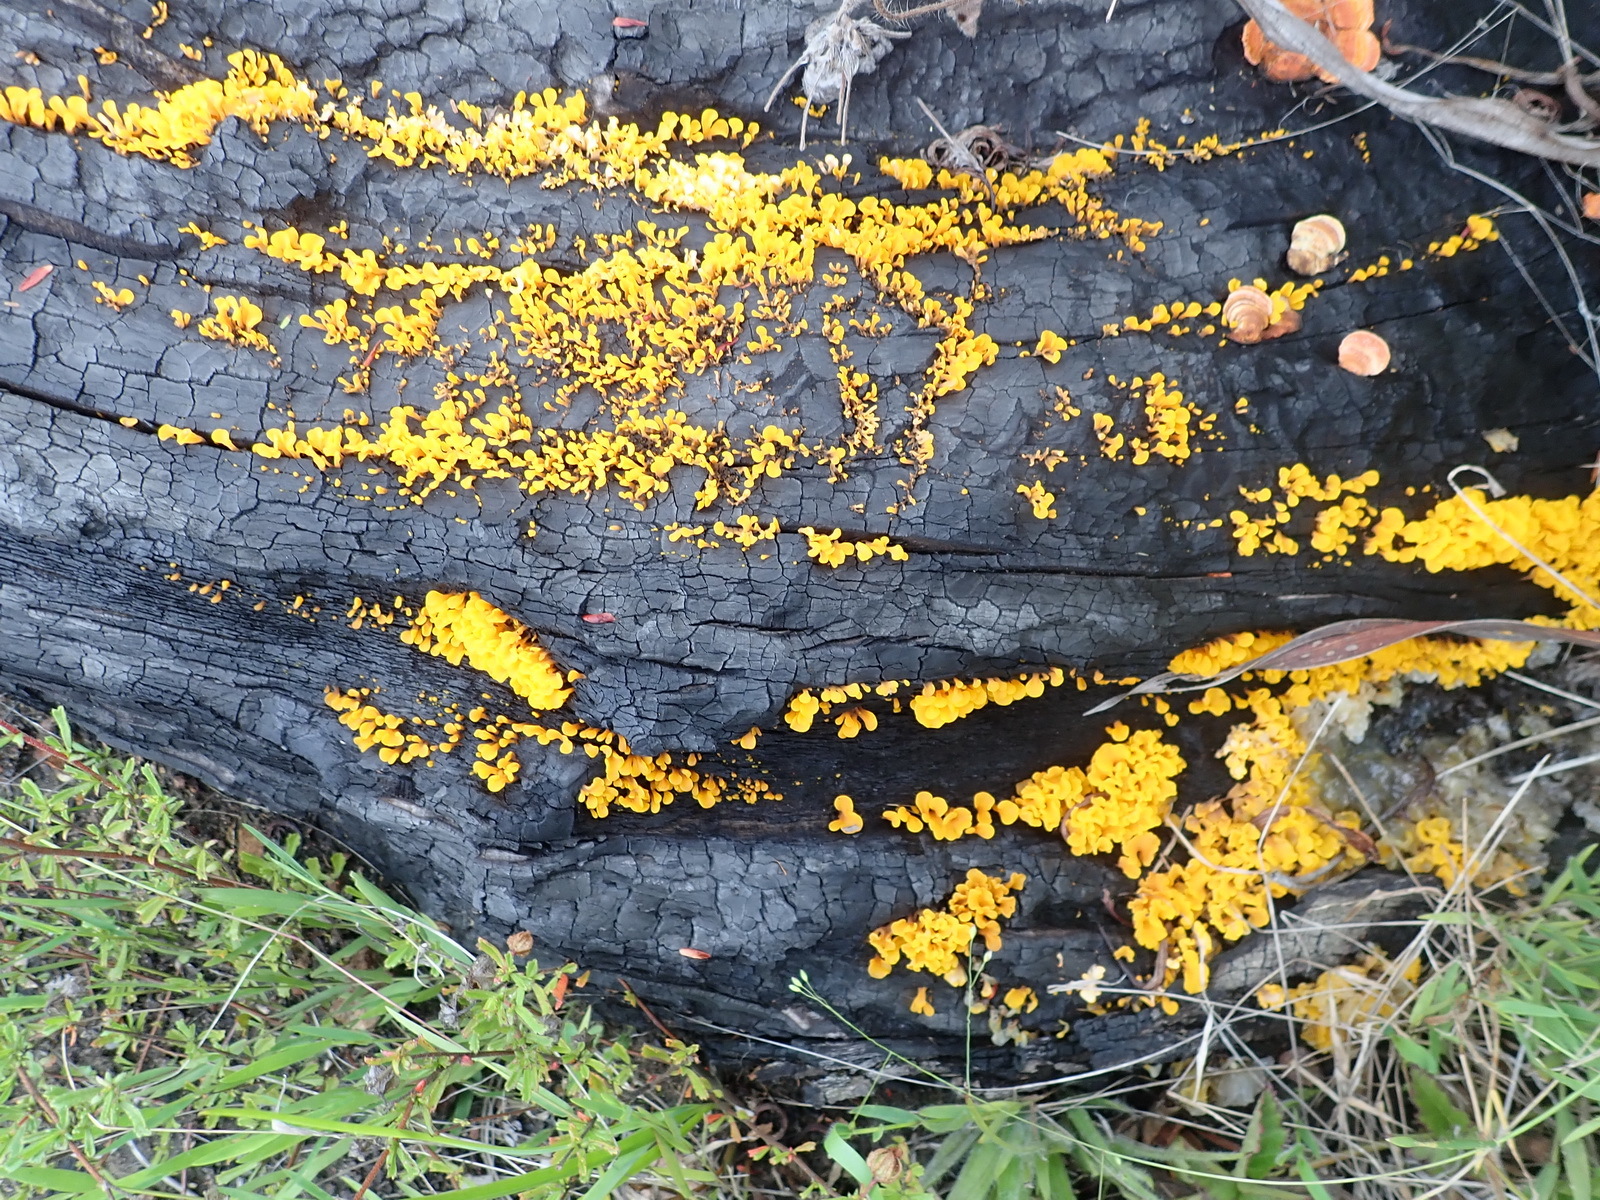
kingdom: Fungi
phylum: Basidiomycota
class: Dacrymycetes
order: Dacrymycetales
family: Dacrymycetaceae
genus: Dacrymyces
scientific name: Dacrymyces spathularius
